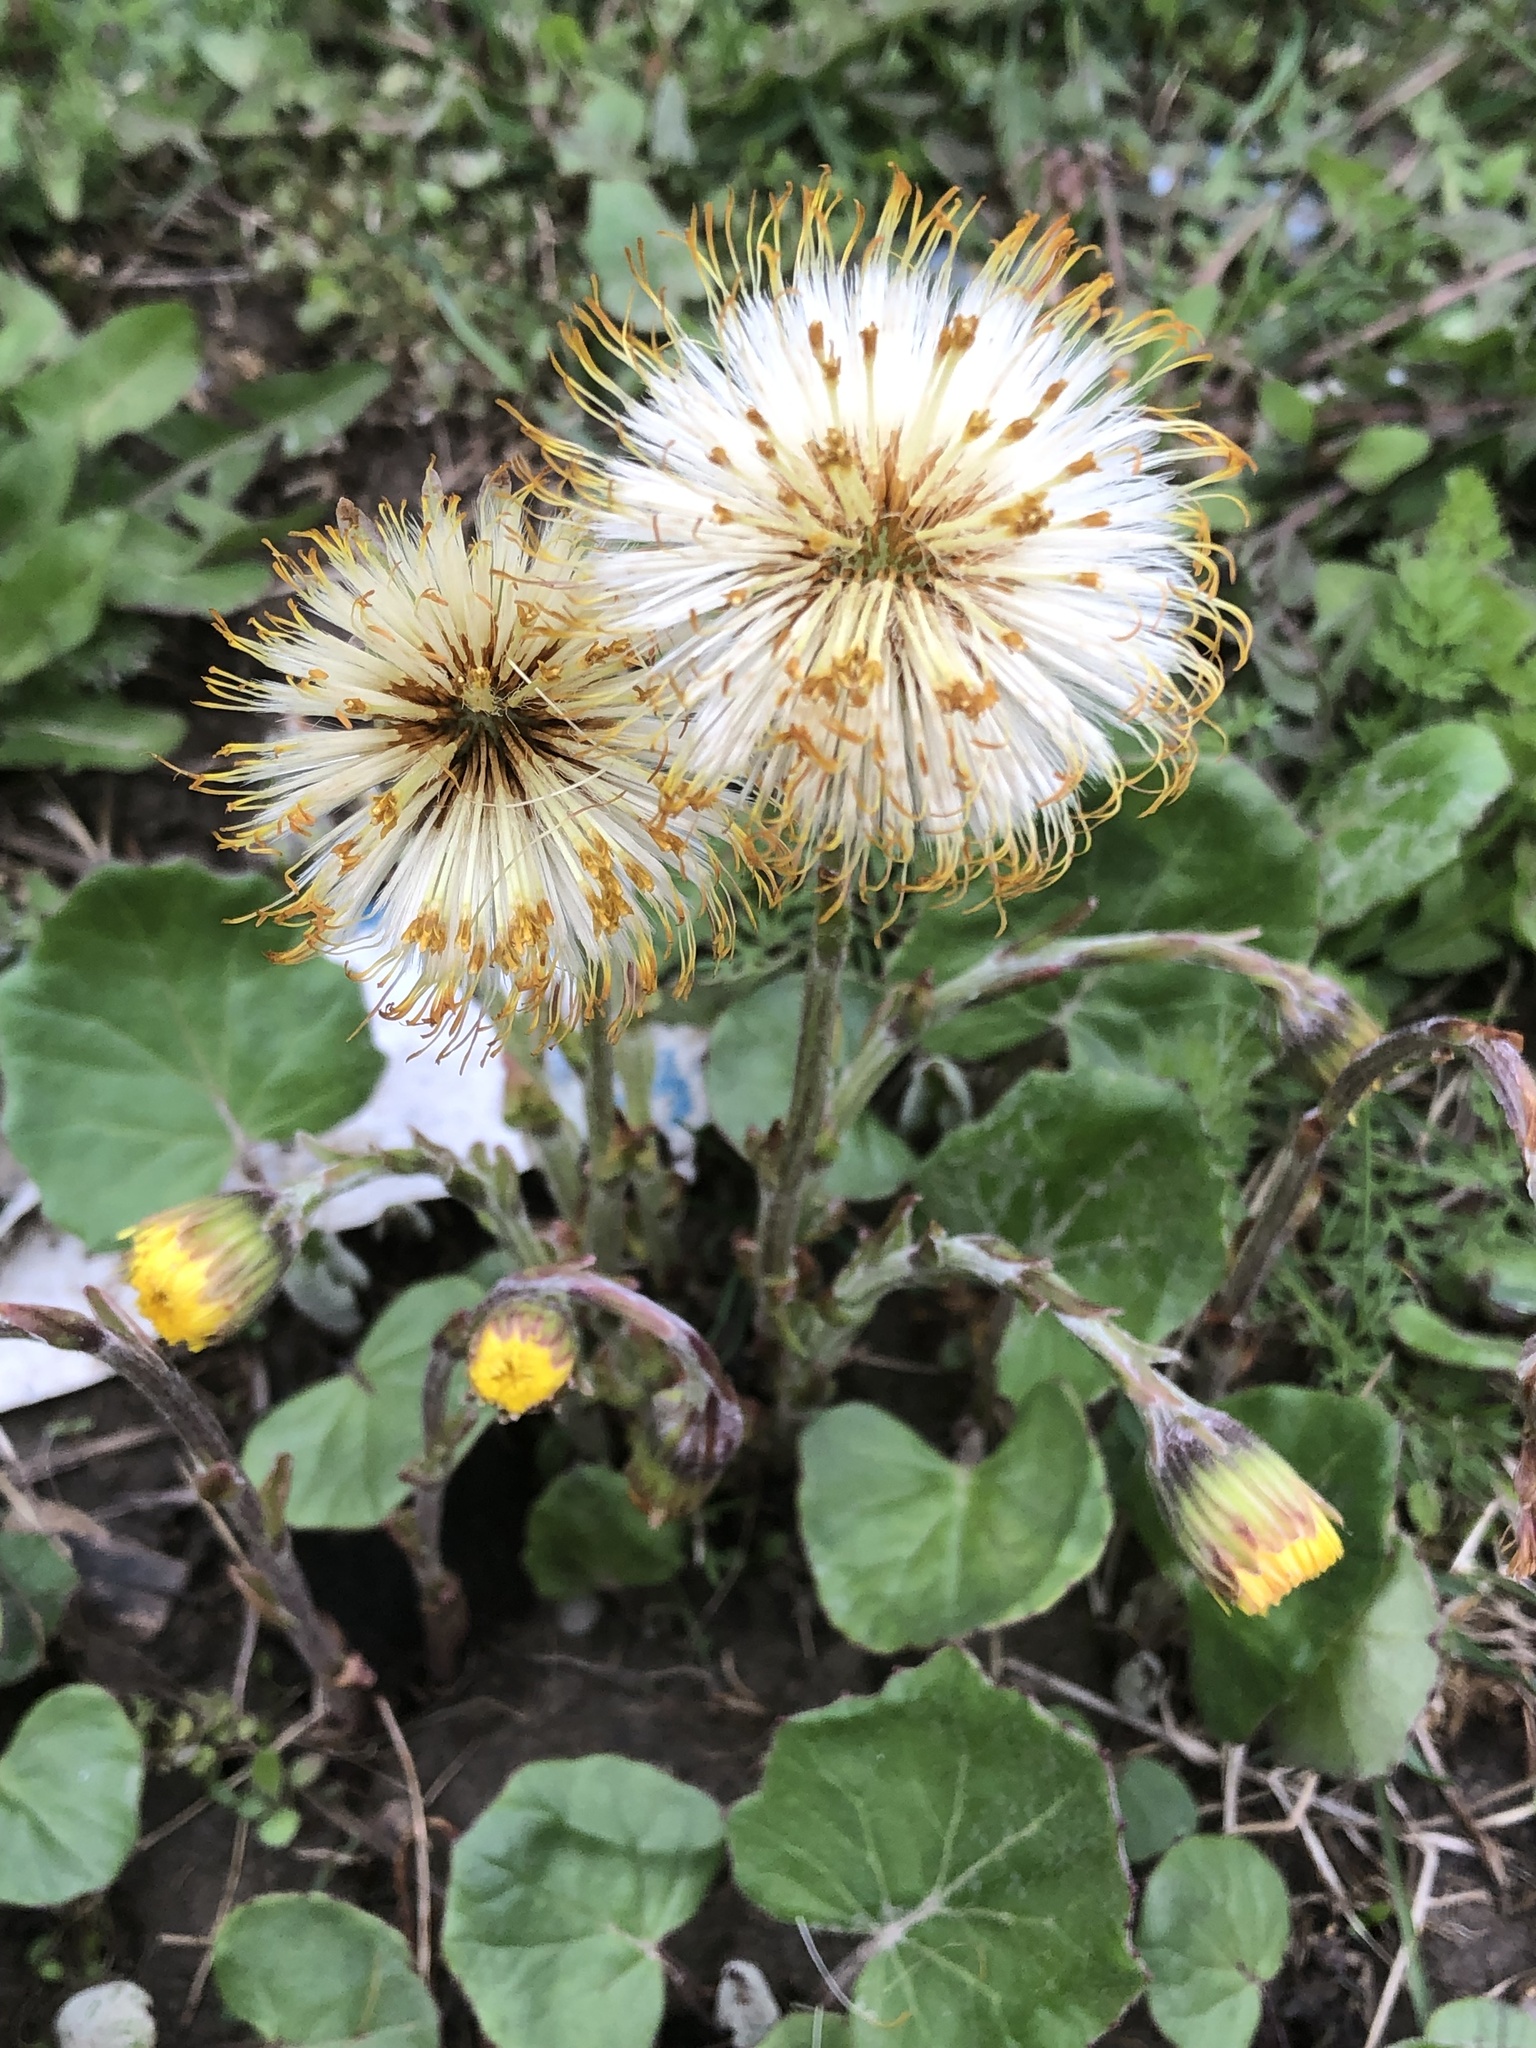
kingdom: Plantae
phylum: Tracheophyta
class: Magnoliopsida
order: Asterales
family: Asteraceae
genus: Tussilago
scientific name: Tussilago farfara
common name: Coltsfoot
